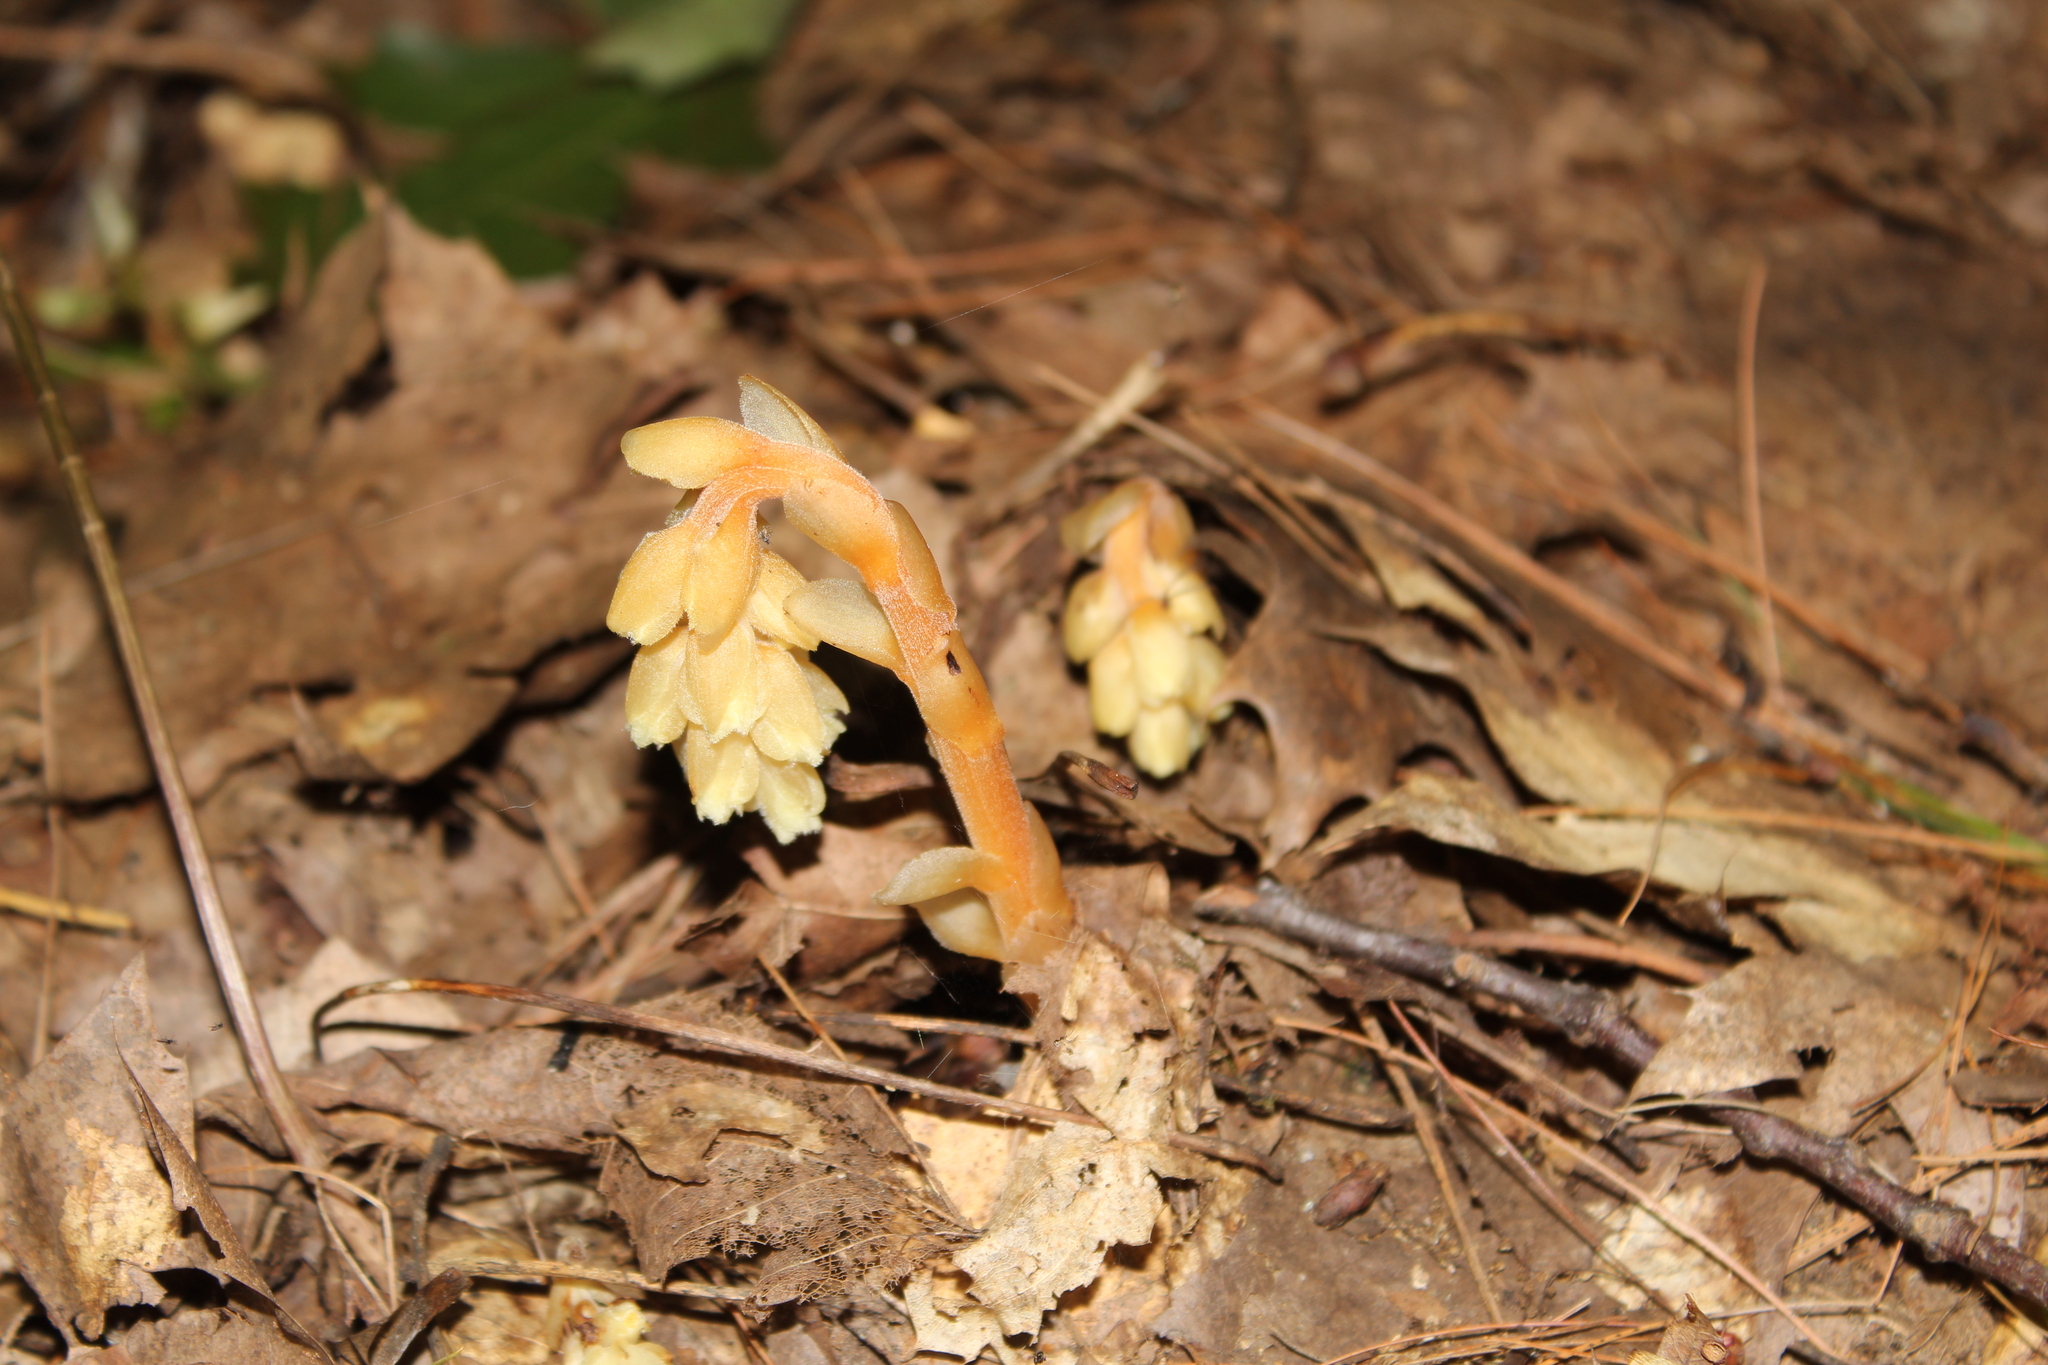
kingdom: Plantae
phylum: Tracheophyta
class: Magnoliopsida
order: Ericales
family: Ericaceae
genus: Hypopitys
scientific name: Hypopitys monotropa
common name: Yellow bird's-nest
